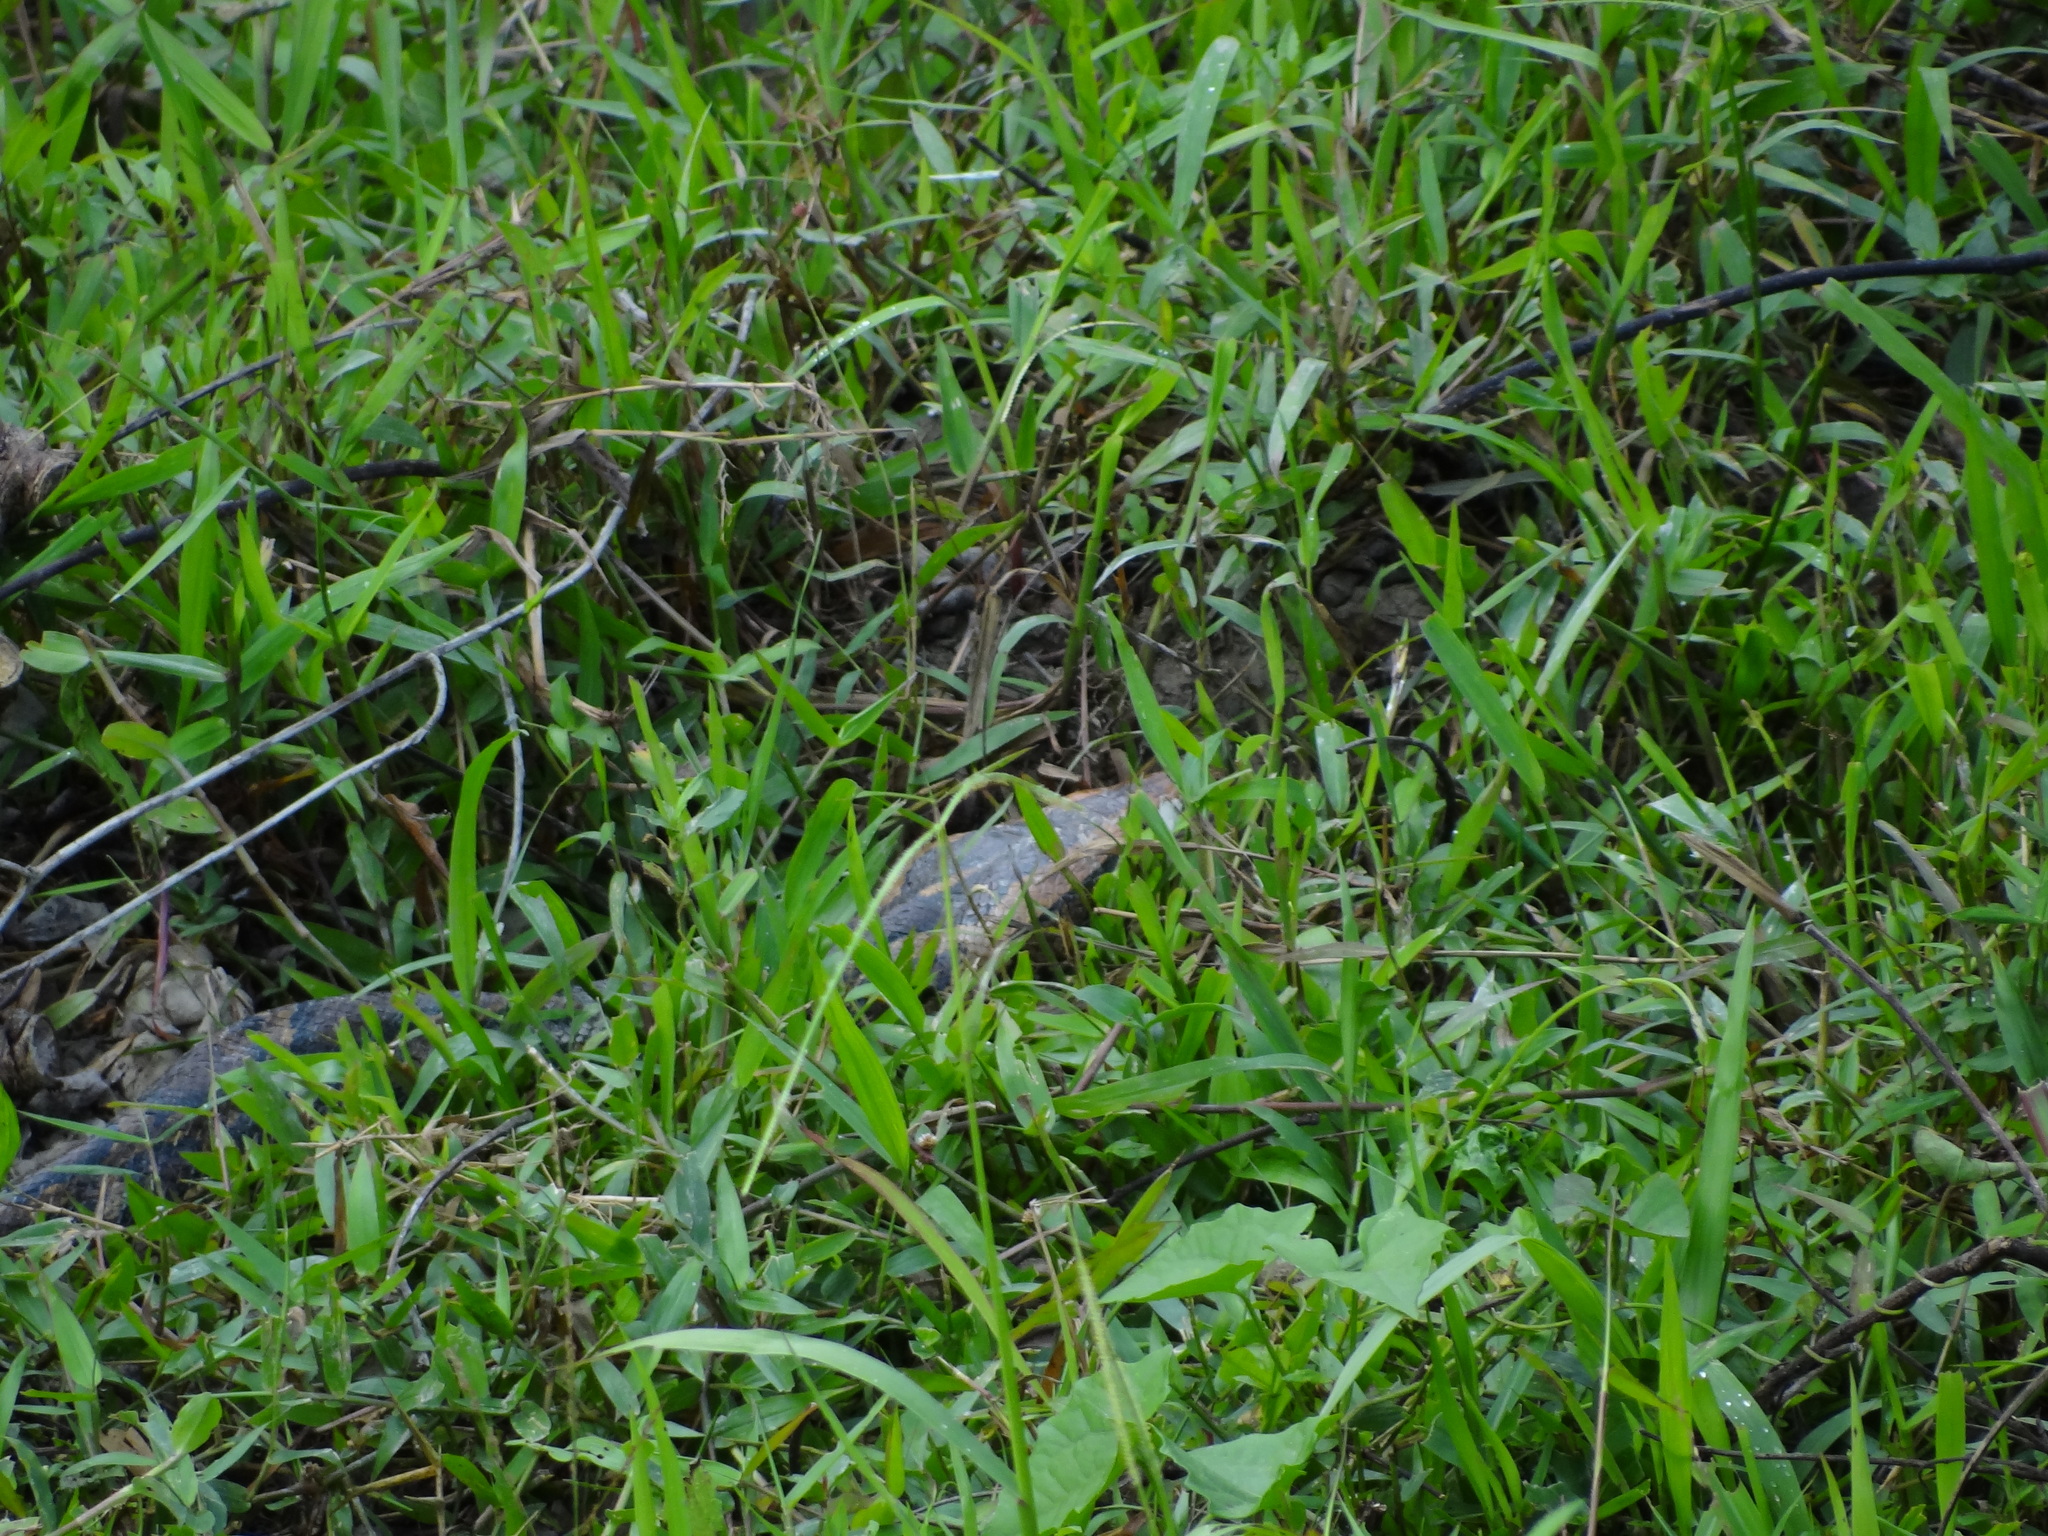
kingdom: Animalia
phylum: Chordata
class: Squamata
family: Pythonidae
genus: Python
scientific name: Python bivittatus
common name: Burmese python
